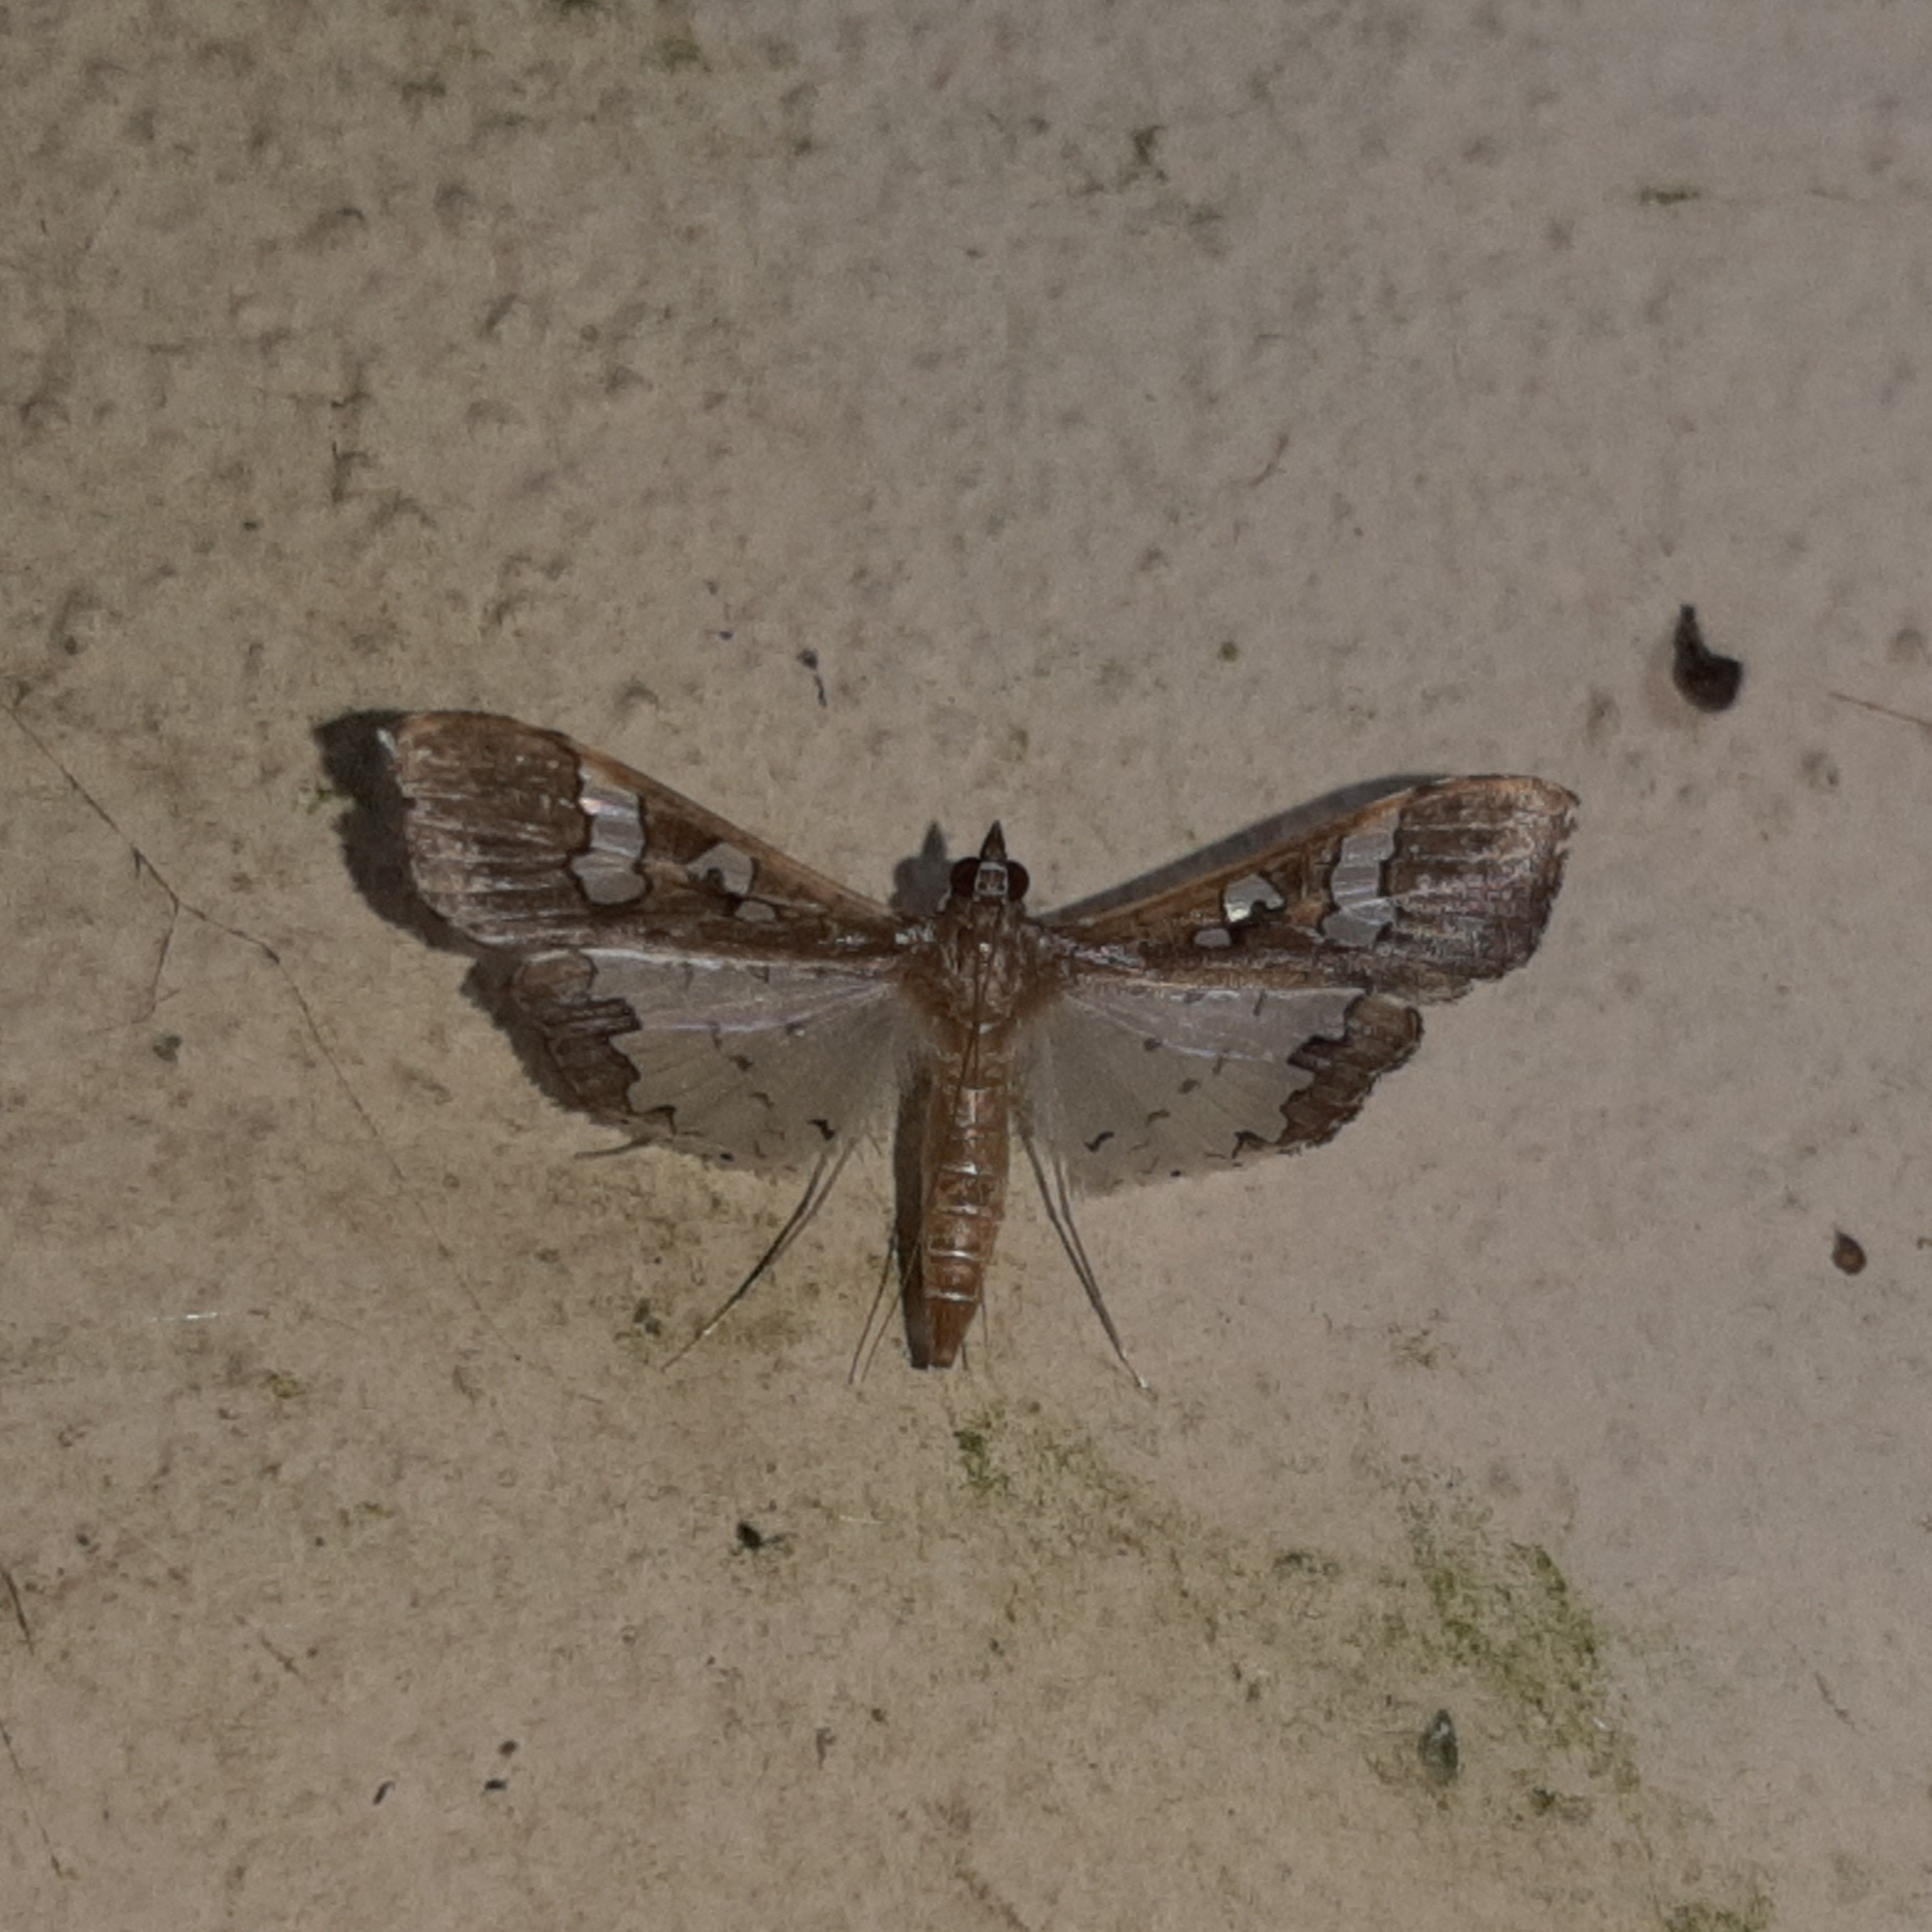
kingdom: Animalia
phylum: Arthropoda
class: Insecta
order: Lepidoptera
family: Crambidae
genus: Maruca
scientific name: Maruca vitrata
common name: Maruca pod borer
